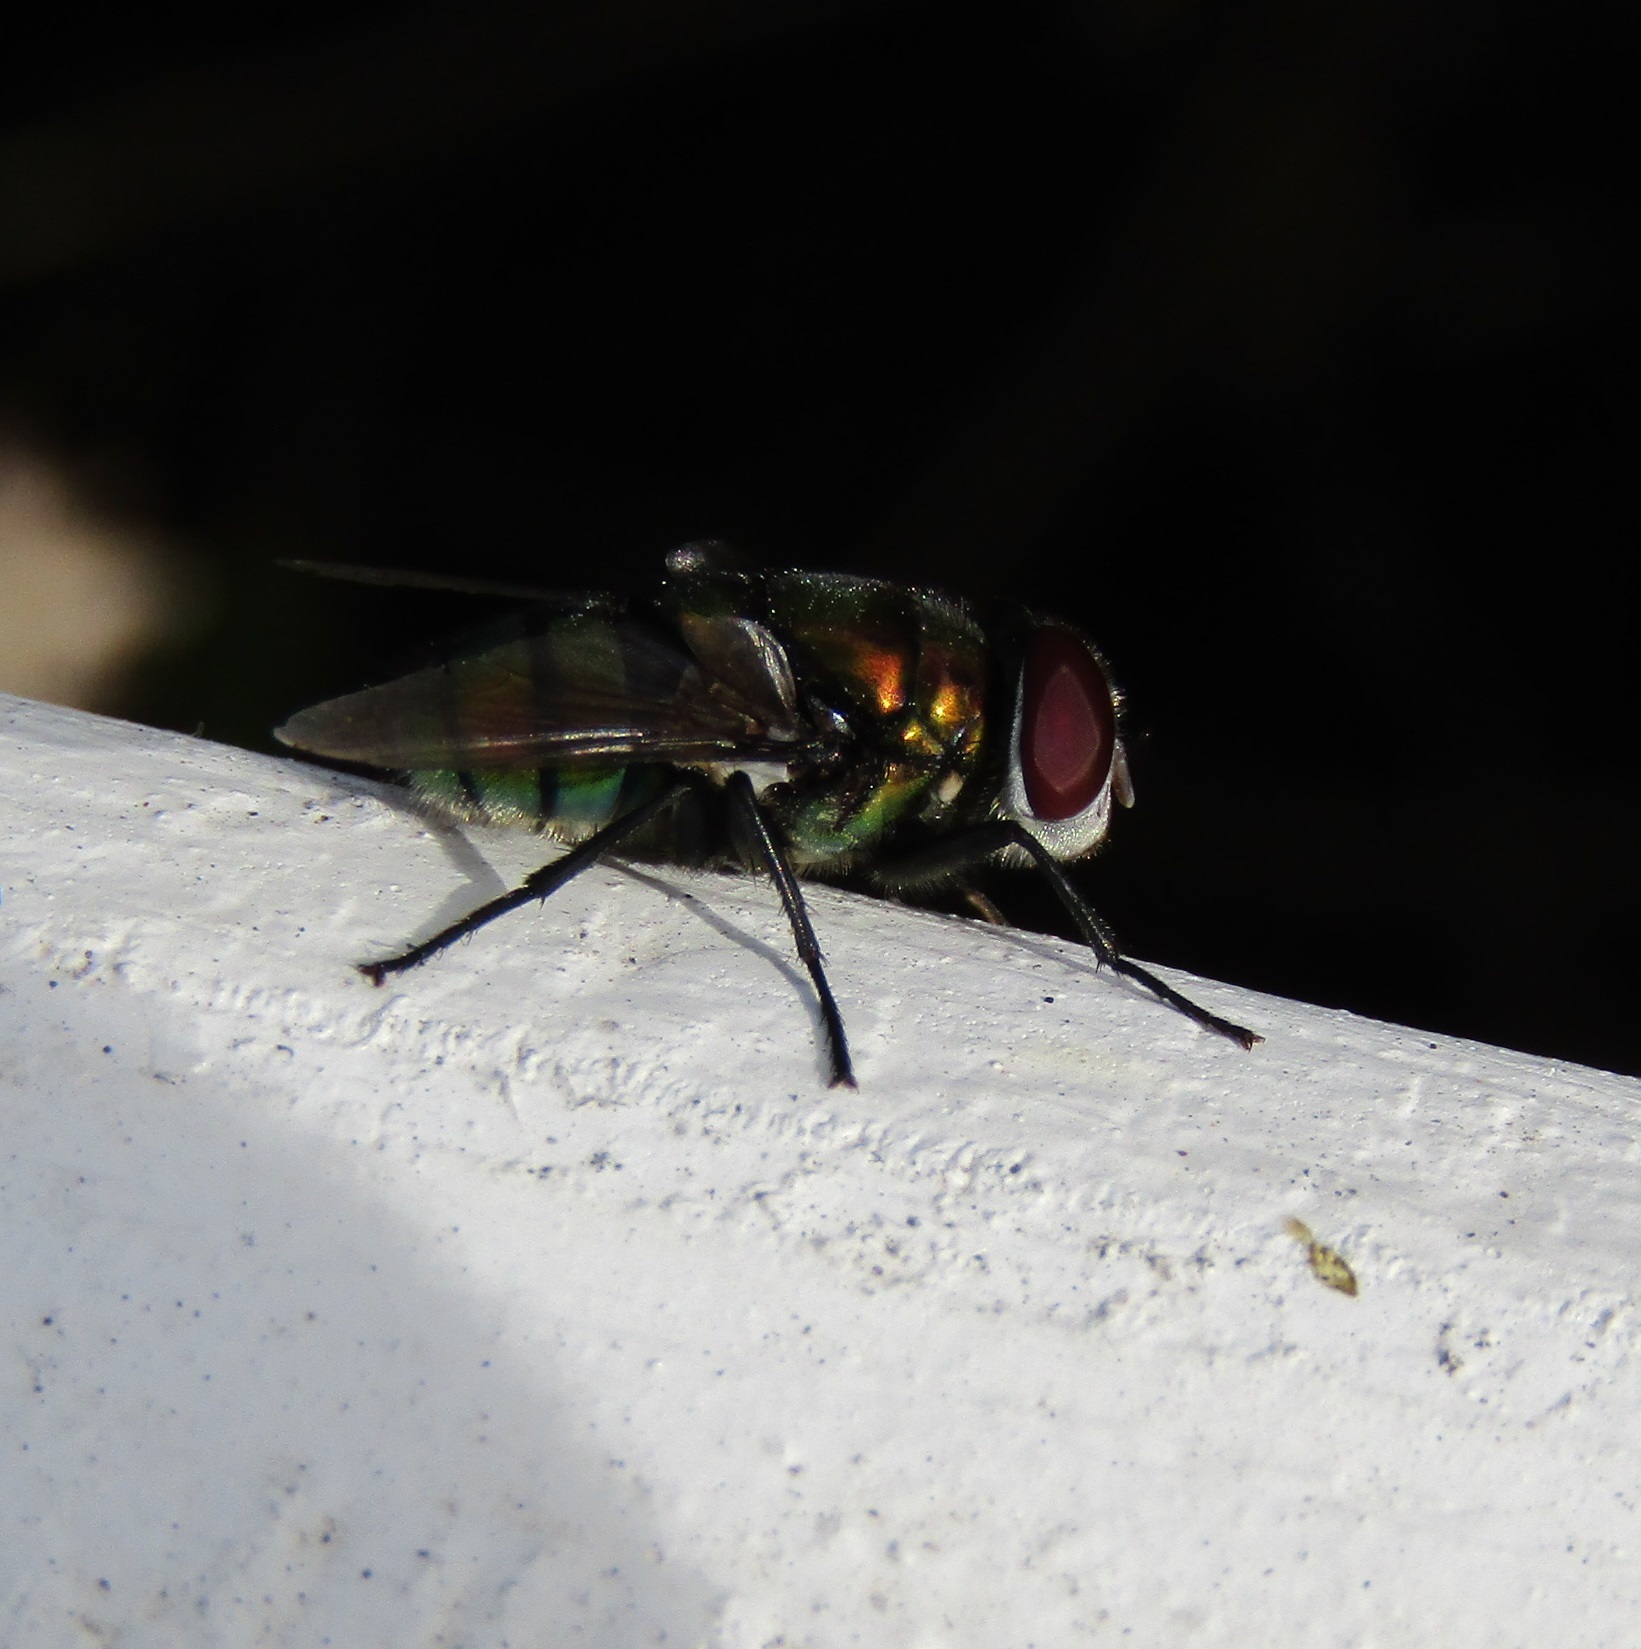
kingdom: Animalia
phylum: Arthropoda
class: Insecta
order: Diptera
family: Calliphoridae
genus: Chrysomya
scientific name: Chrysomya rufifacies
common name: Blow fly
